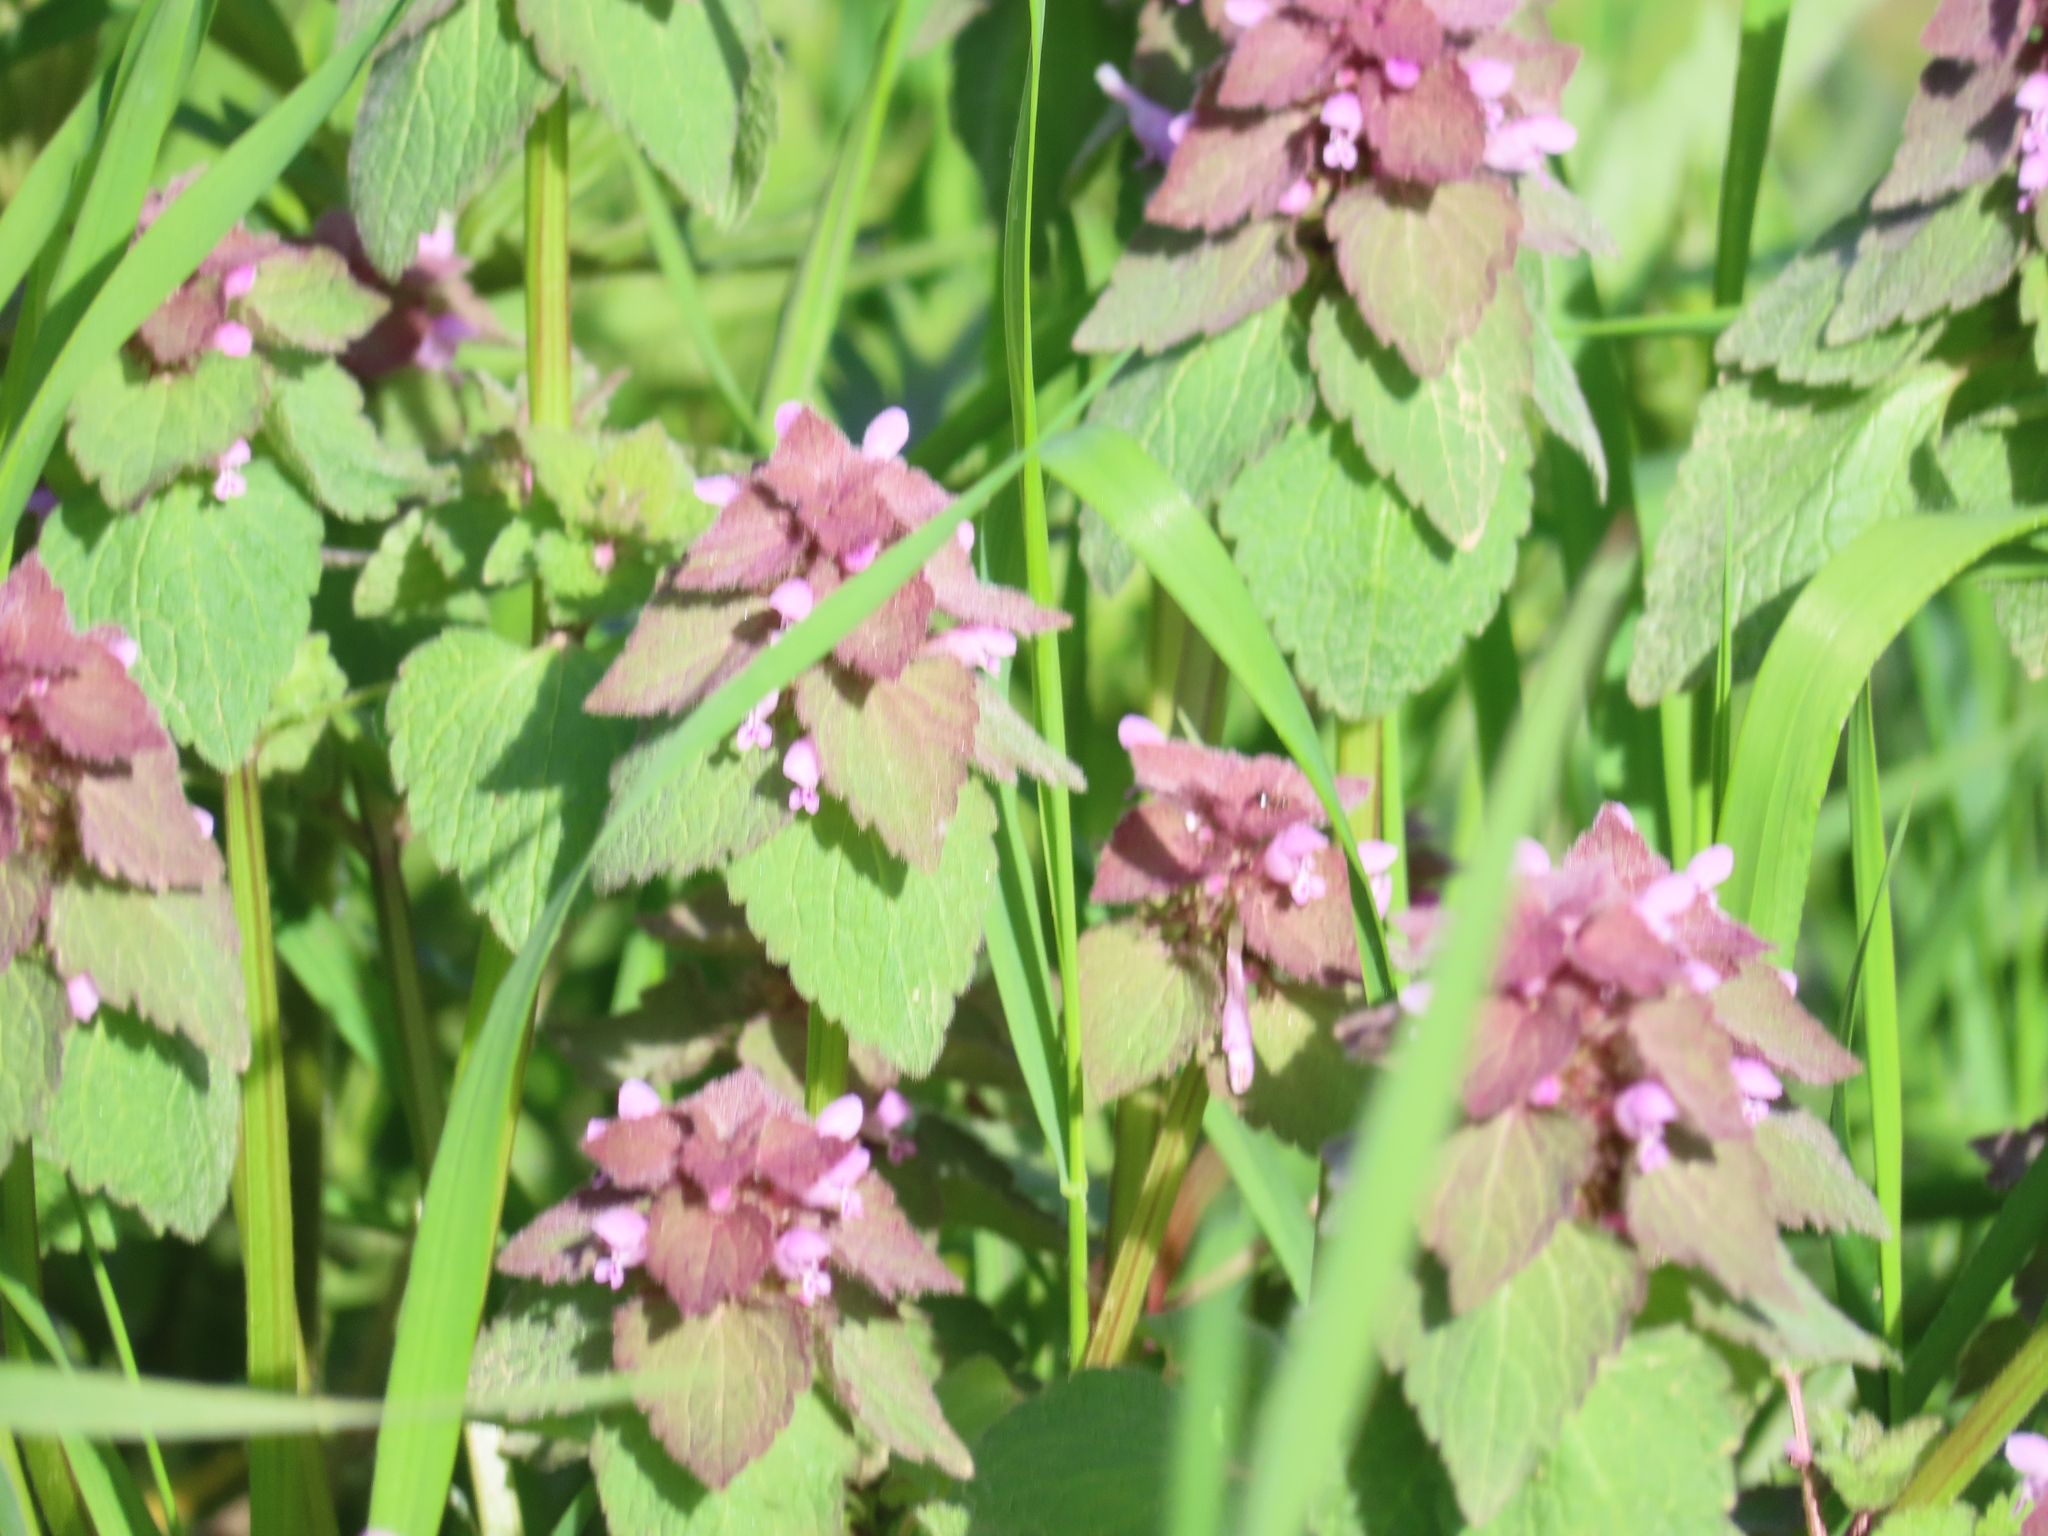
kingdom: Plantae
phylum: Tracheophyta
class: Magnoliopsida
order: Lamiales
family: Lamiaceae
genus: Lamium
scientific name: Lamium purpureum
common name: Red dead-nettle
